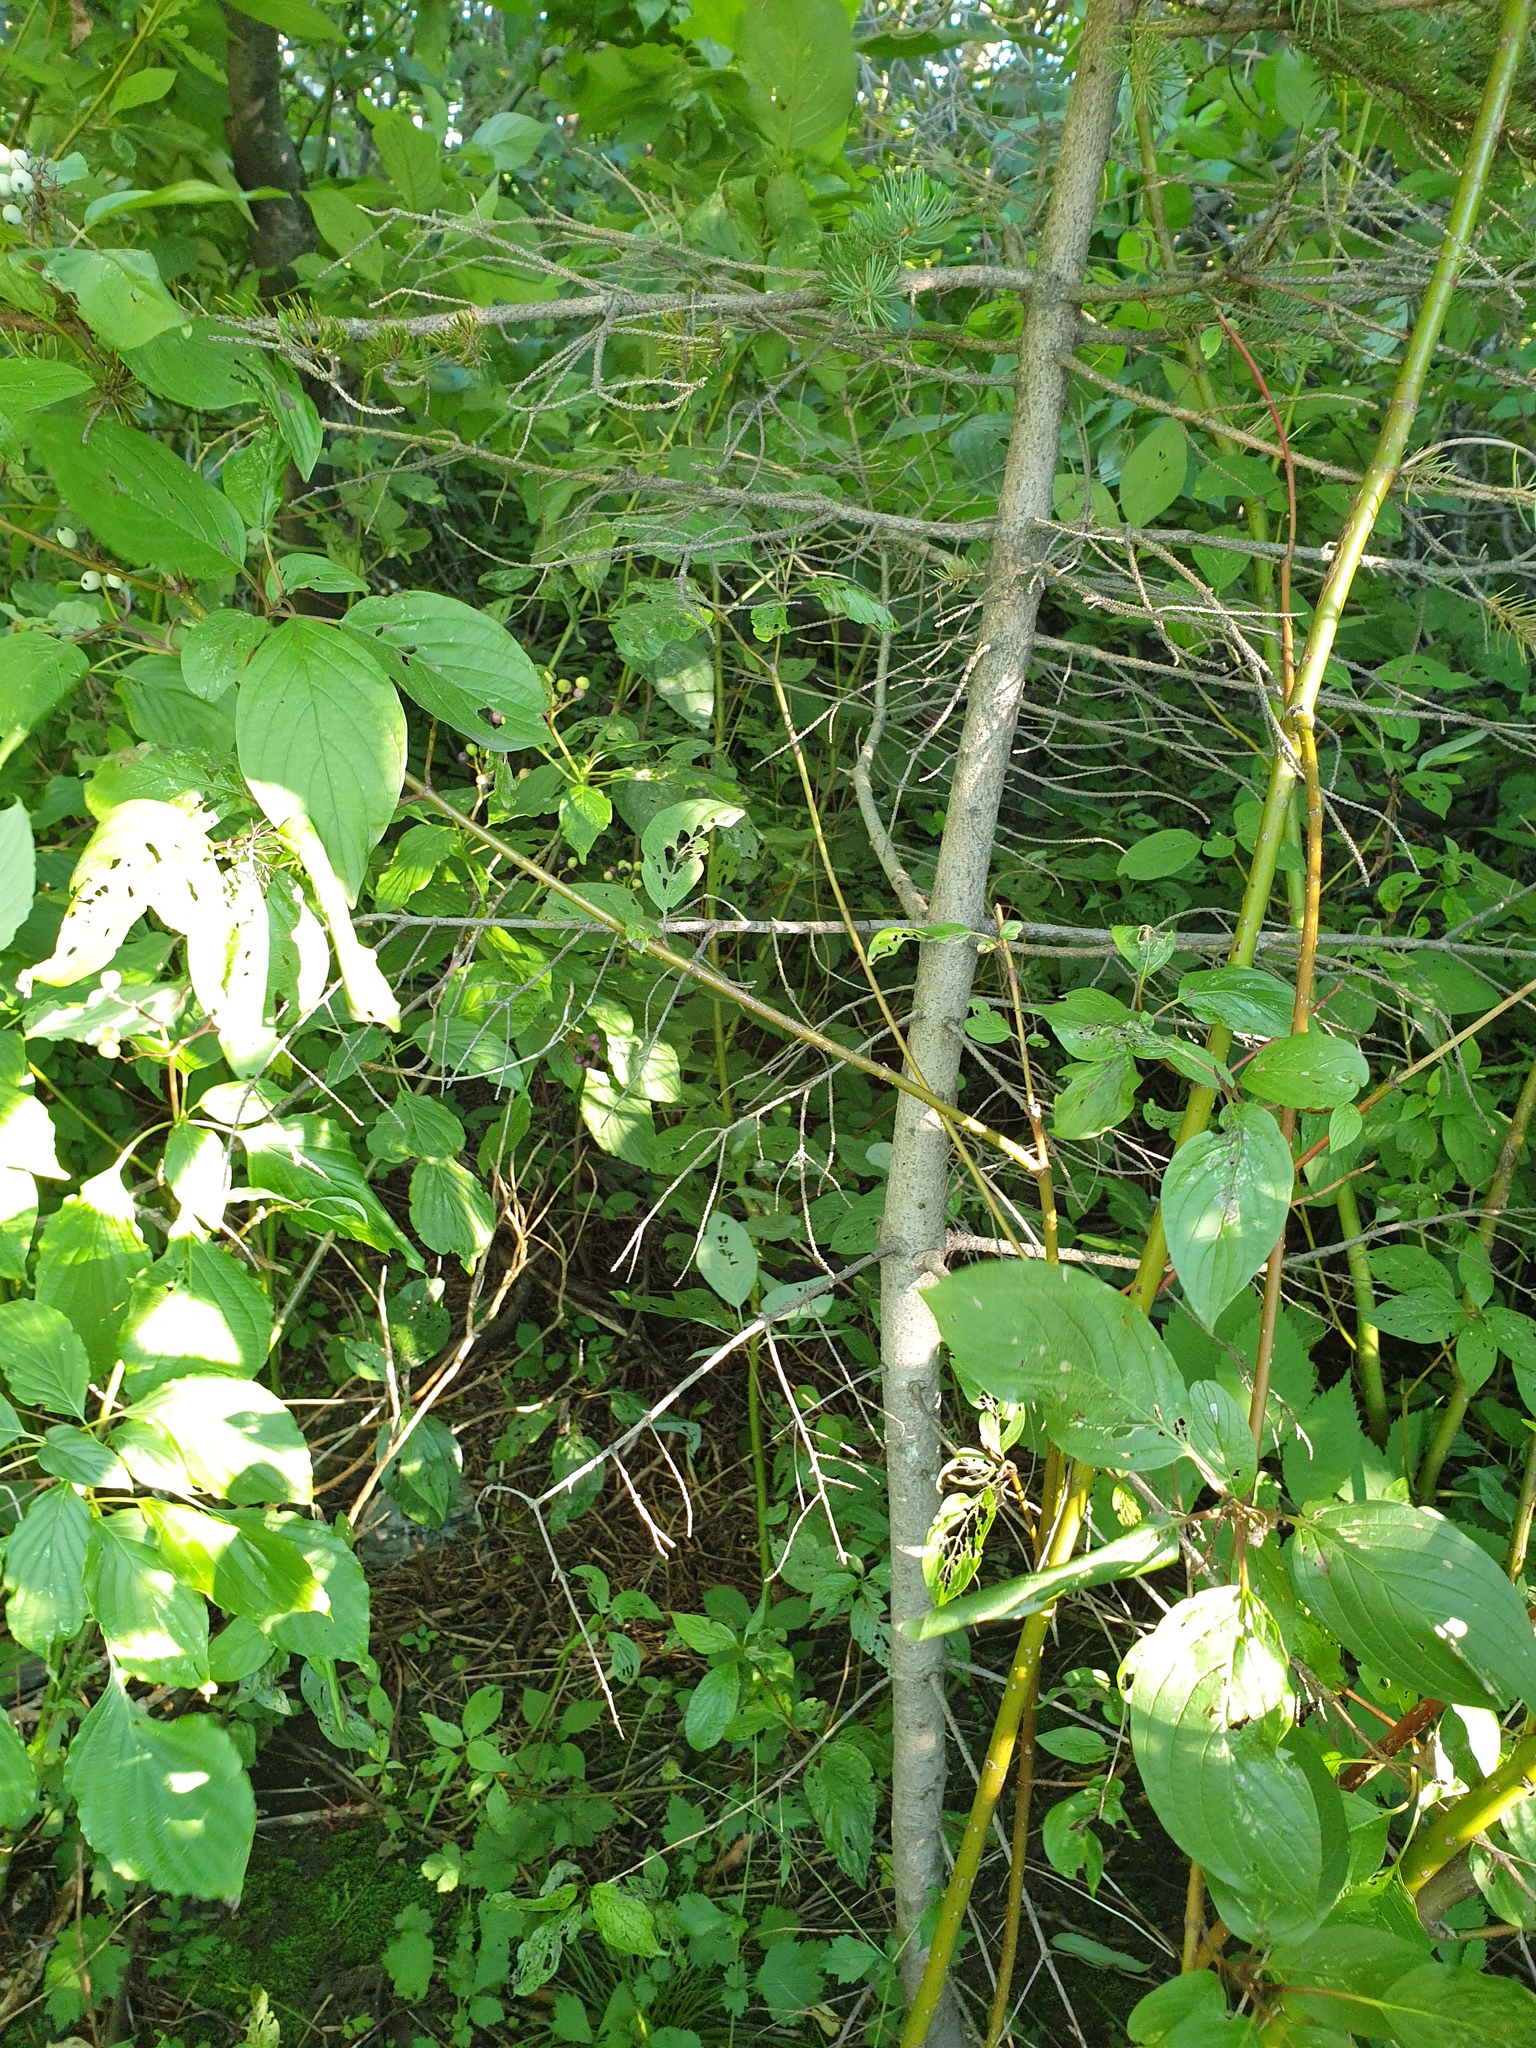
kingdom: Plantae
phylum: Tracheophyta
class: Pinopsida
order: Pinales
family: Pinaceae
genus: Picea
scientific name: Picea glauca
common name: White spruce
